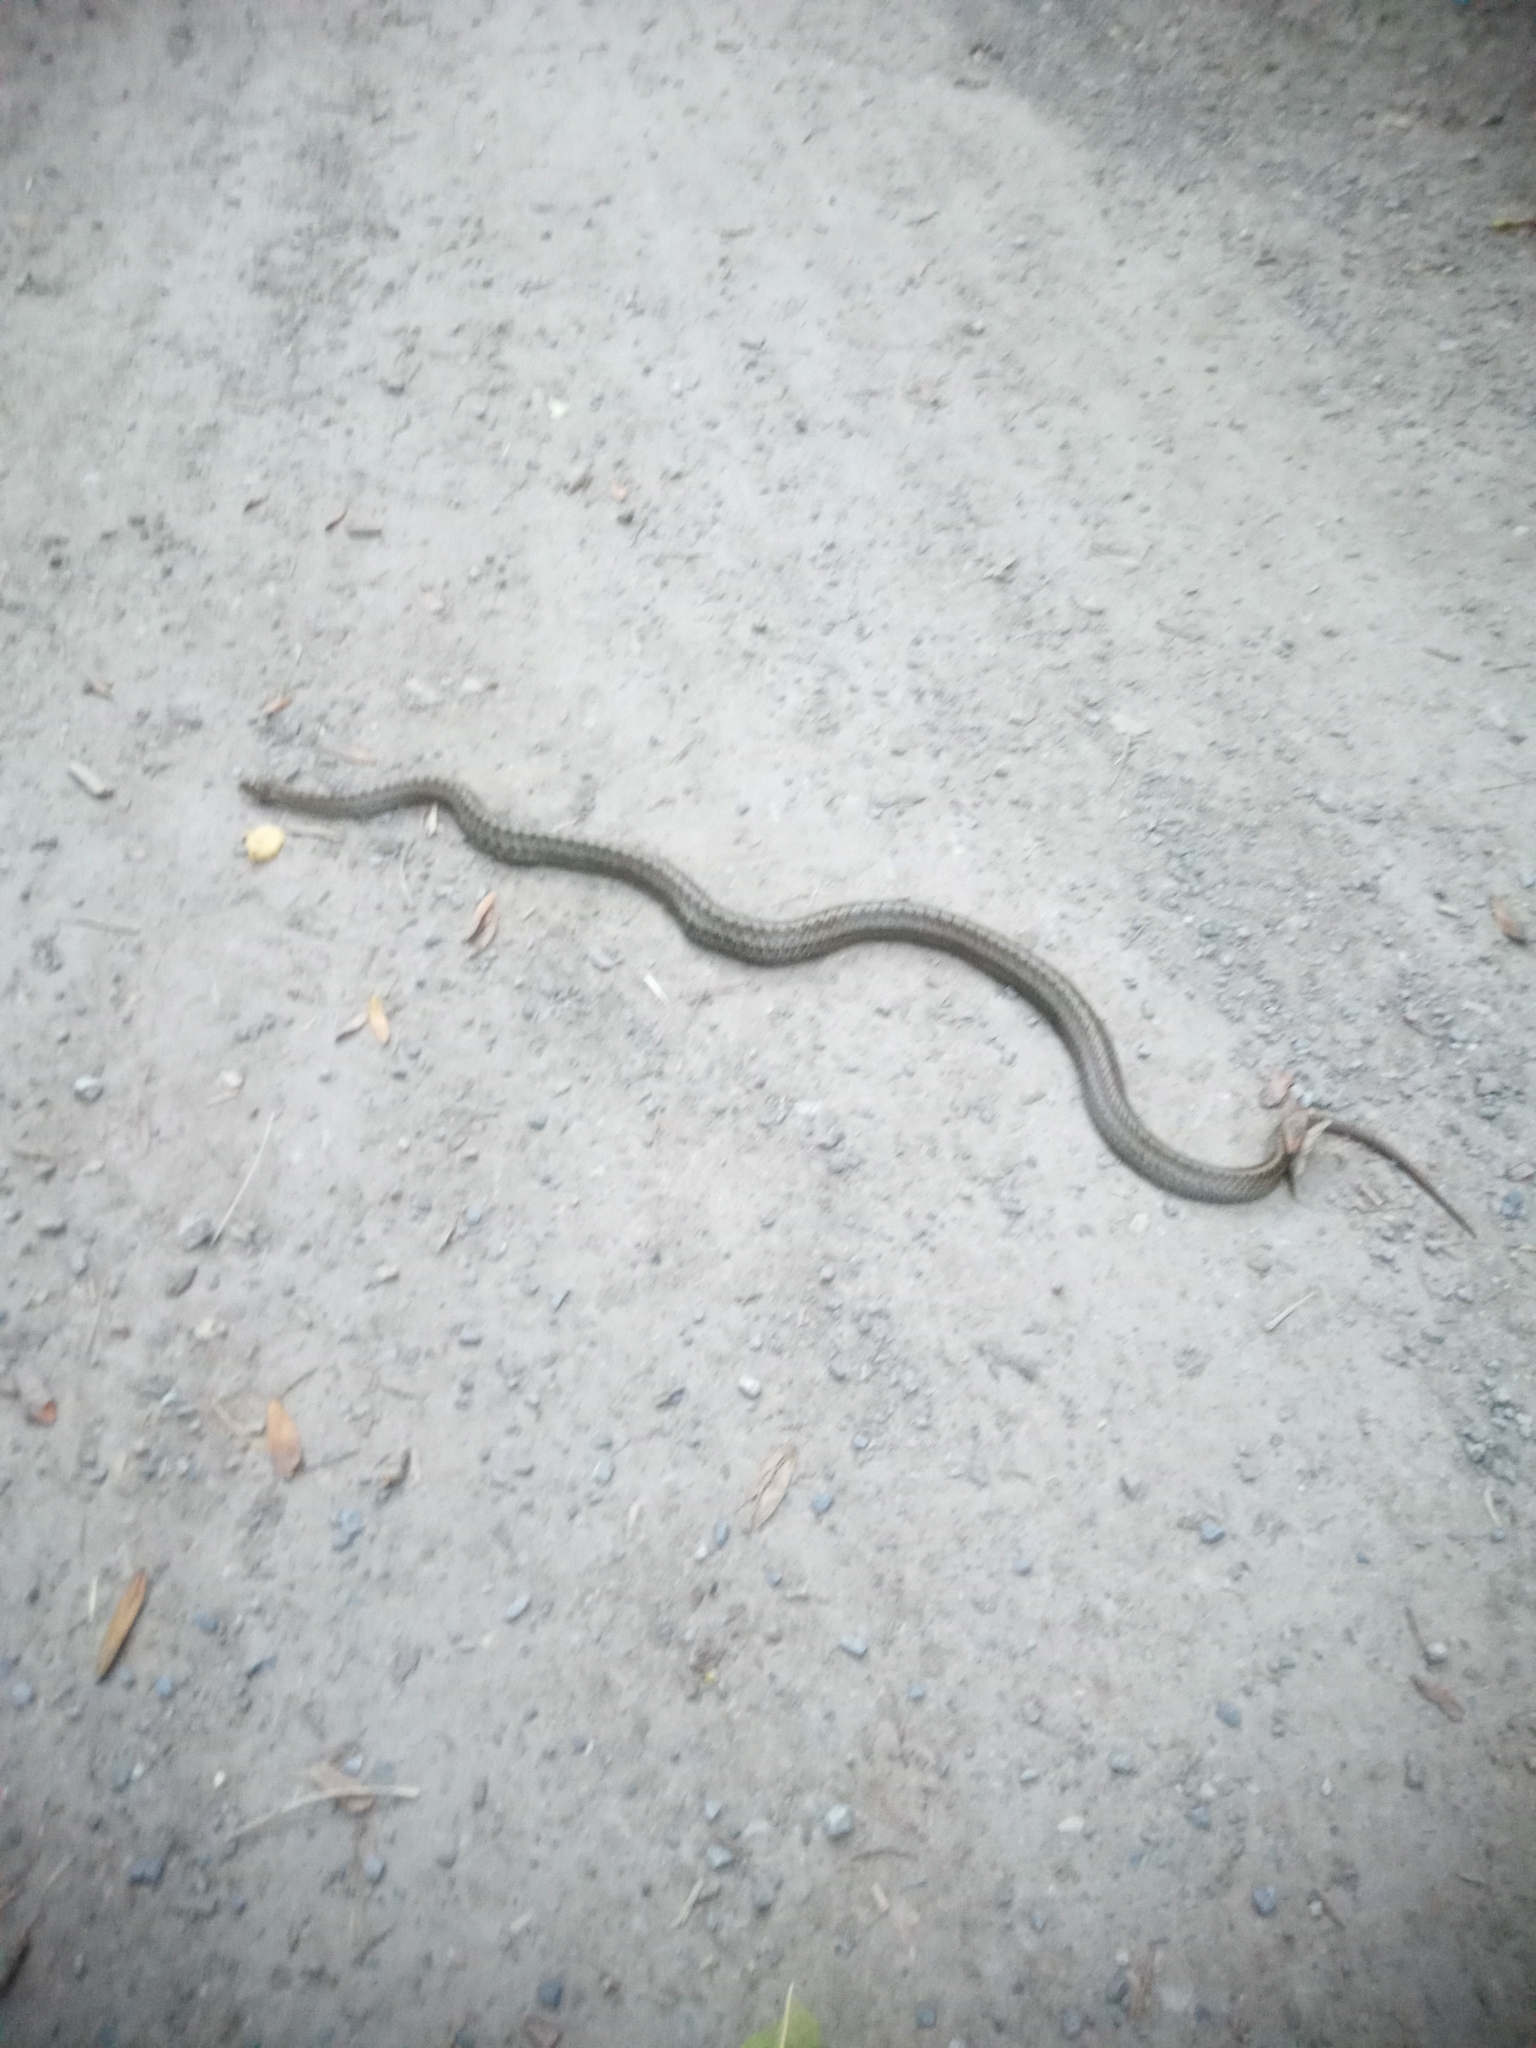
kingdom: Animalia
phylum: Chordata
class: Squamata
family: Colubridae
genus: Coronella
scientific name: Coronella austriaca
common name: Smooth snake
